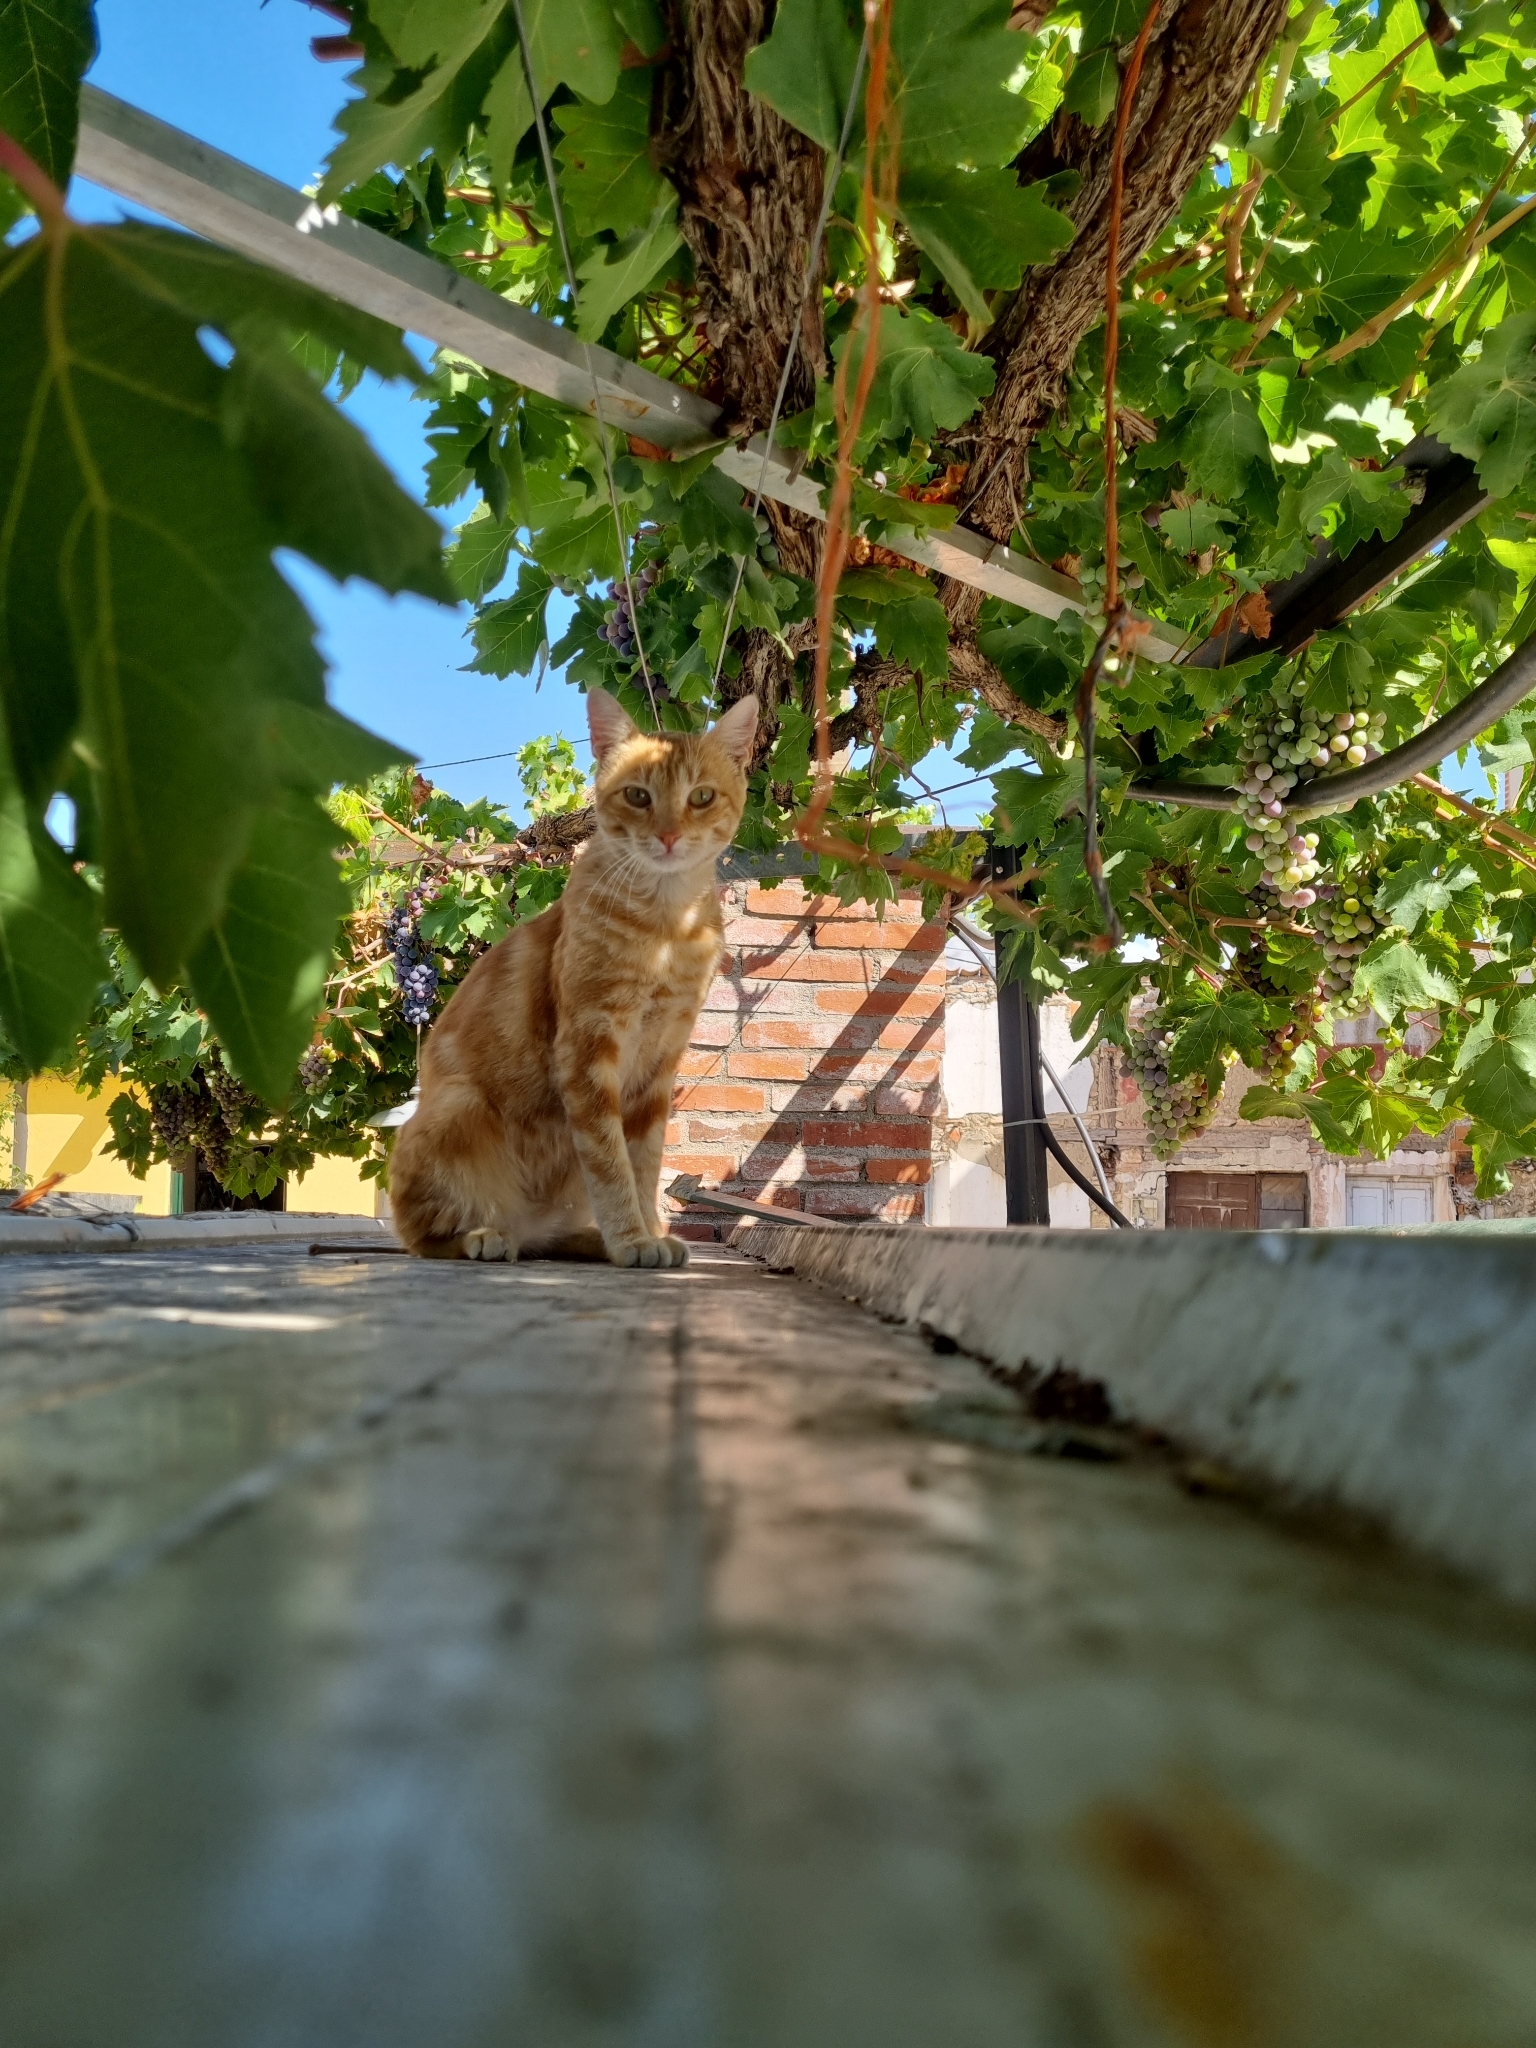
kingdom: Animalia
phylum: Chordata
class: Mammalia
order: Carnivora
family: Felidae
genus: Felis
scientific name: Felis catus
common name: Domestic cat
